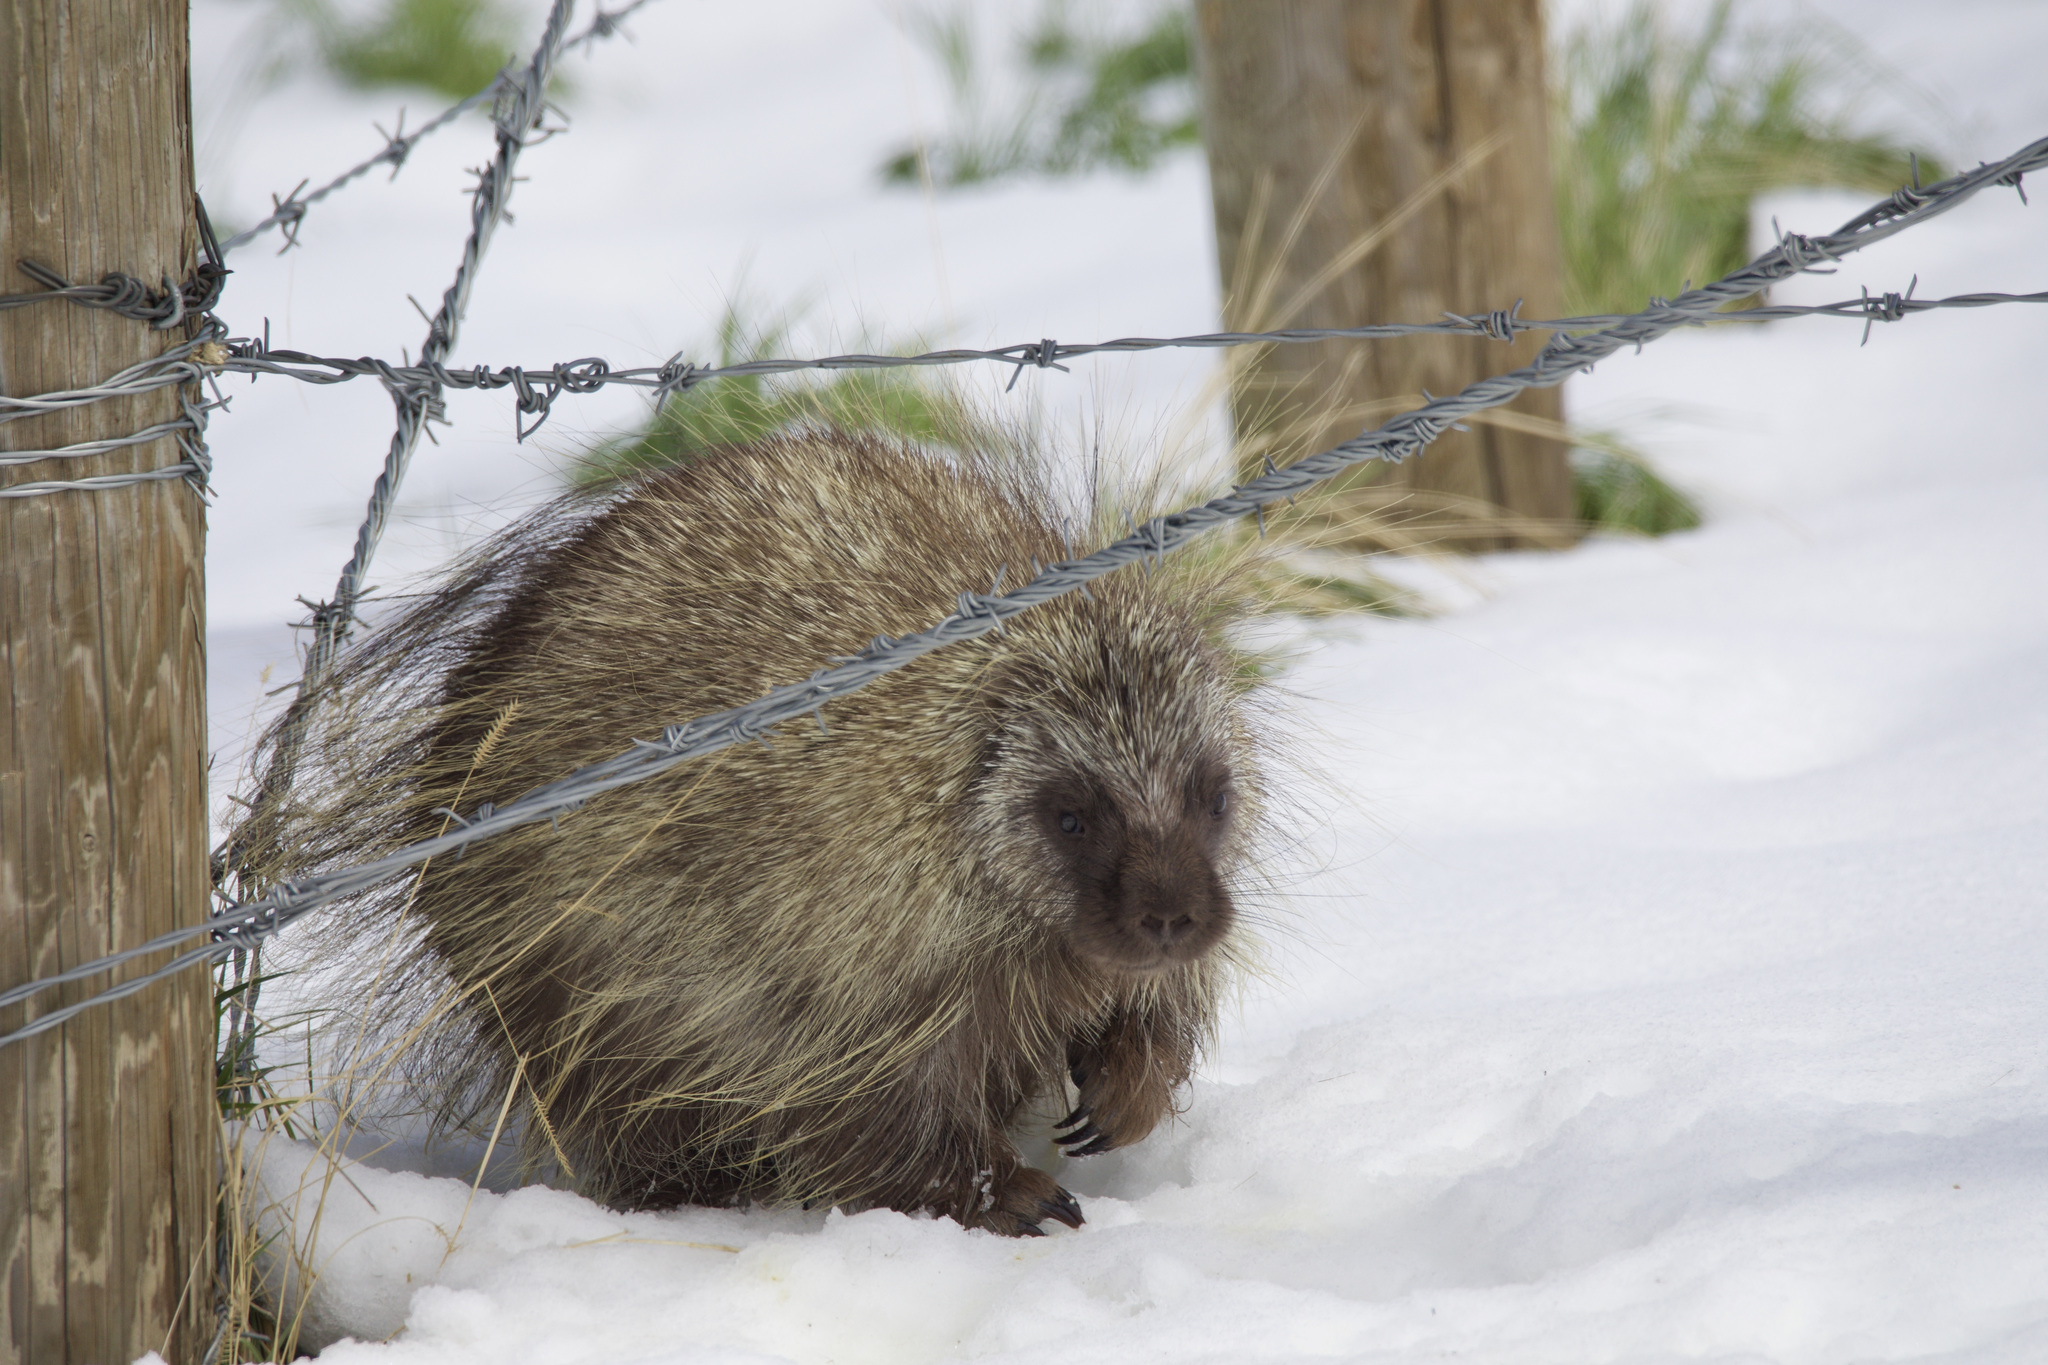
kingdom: Animalia
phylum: Chordata
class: Mammalia
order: Rodentia
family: Erethizontidae
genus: Erethizon
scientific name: Erethizon dorsatus
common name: North american porcupine
